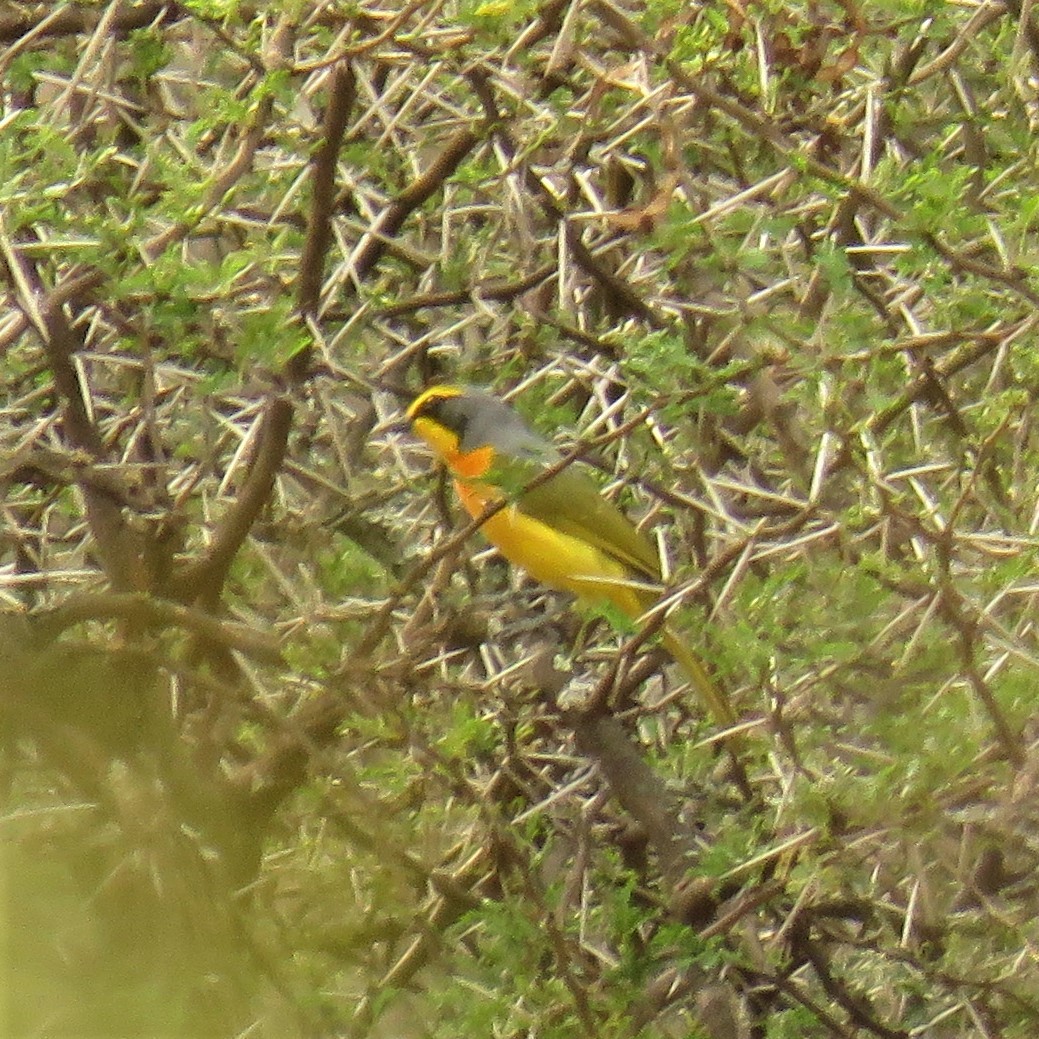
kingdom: Animalia
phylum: Chordata
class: Aves
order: Passeriformes
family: Malaconotidae
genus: Chlorophoneus
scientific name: Chlorophoneus sulfureopectus
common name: Orange-breasted bushshrike
